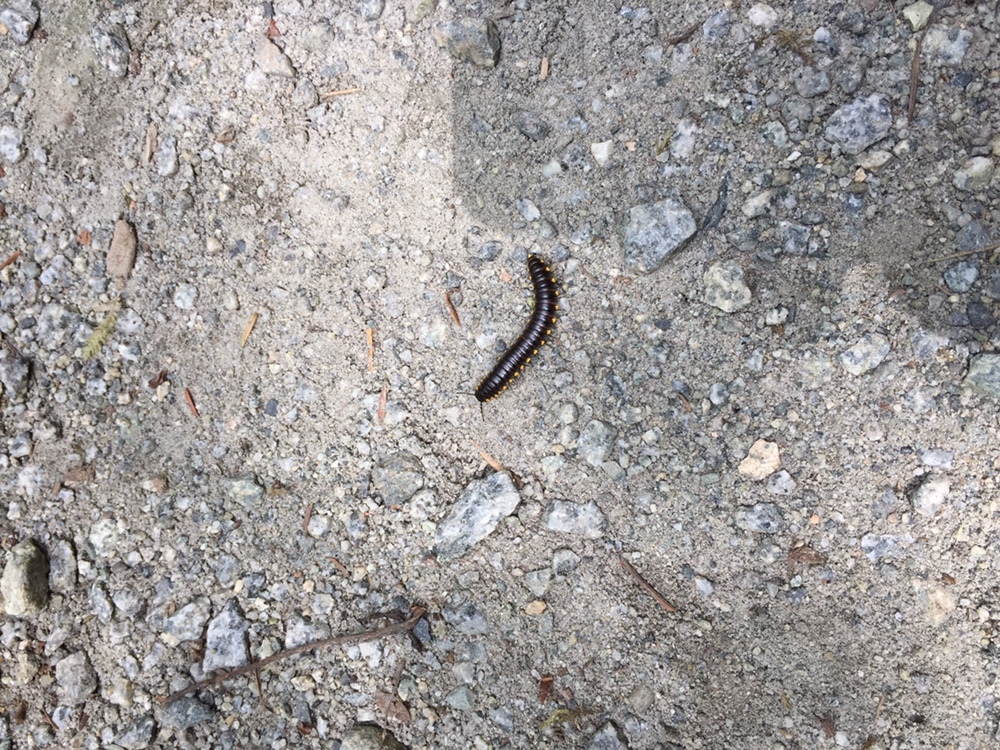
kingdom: Animalia
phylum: Arthropoda
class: Diplopoda
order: Polydesmida
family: Xystodesmidae
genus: Harpaphe
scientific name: Harpaphe haydeniana
